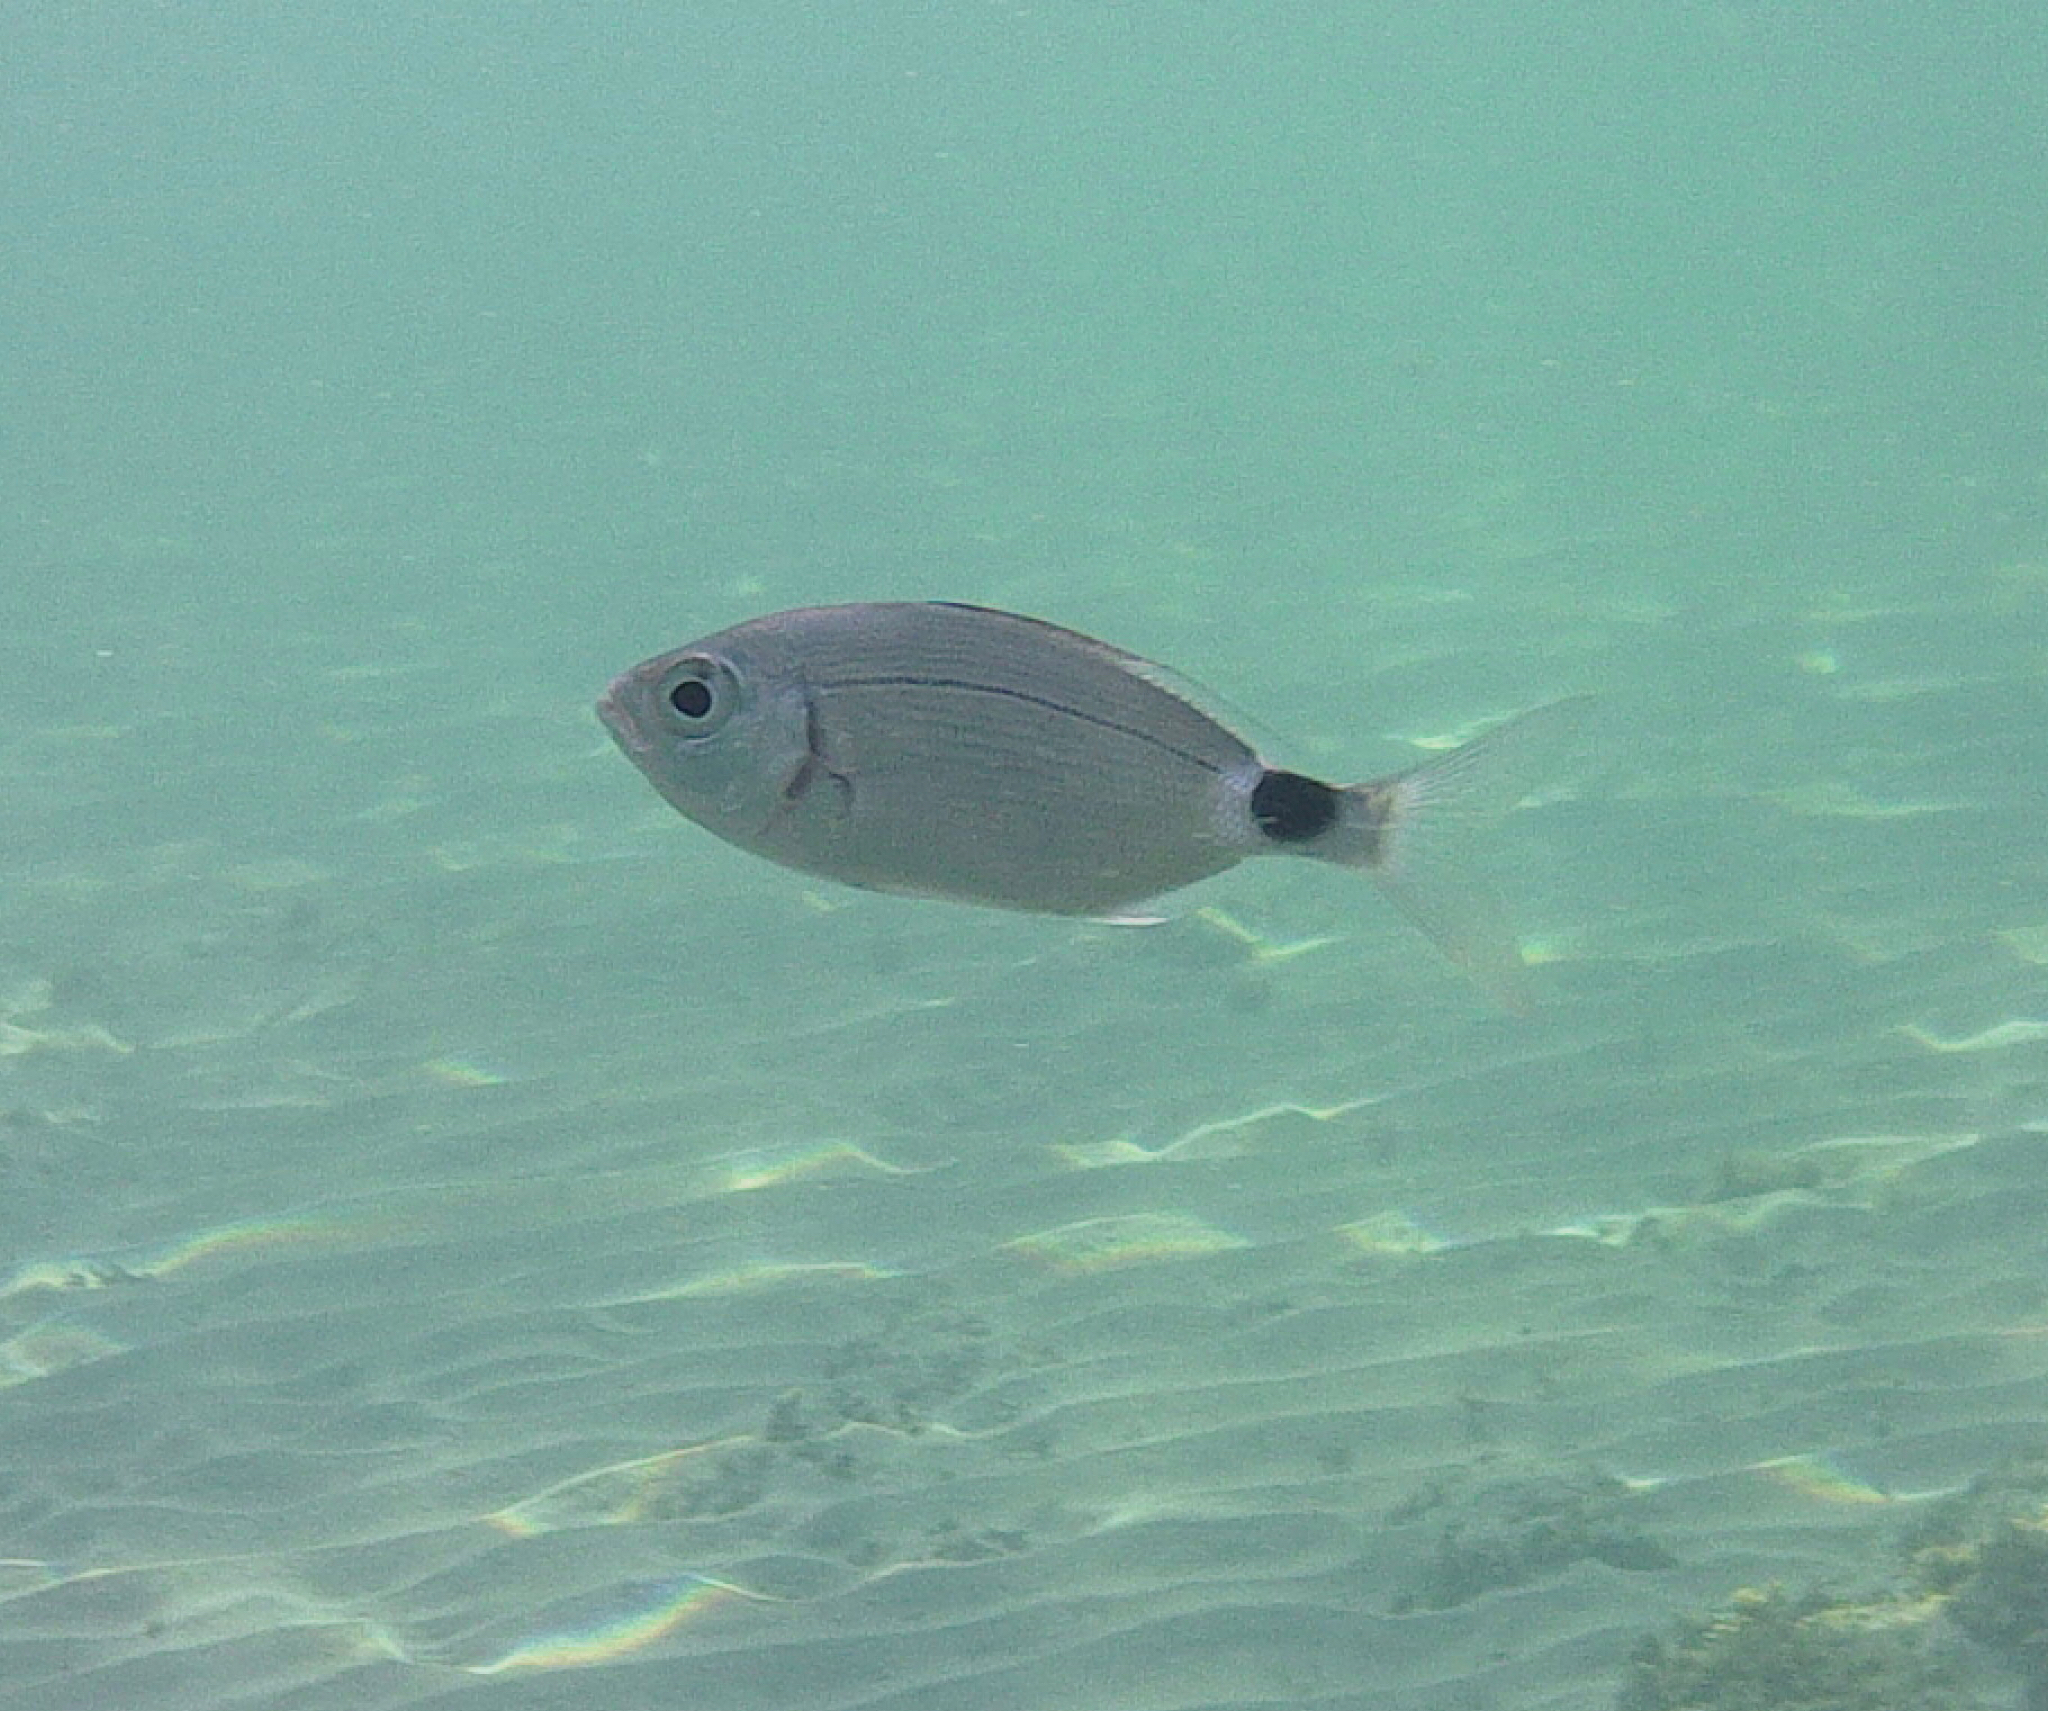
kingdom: Animalia
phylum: Chordata
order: Perciformes
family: Sparidae
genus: Oblada
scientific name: Oblada melanura
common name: Saddled seabream
